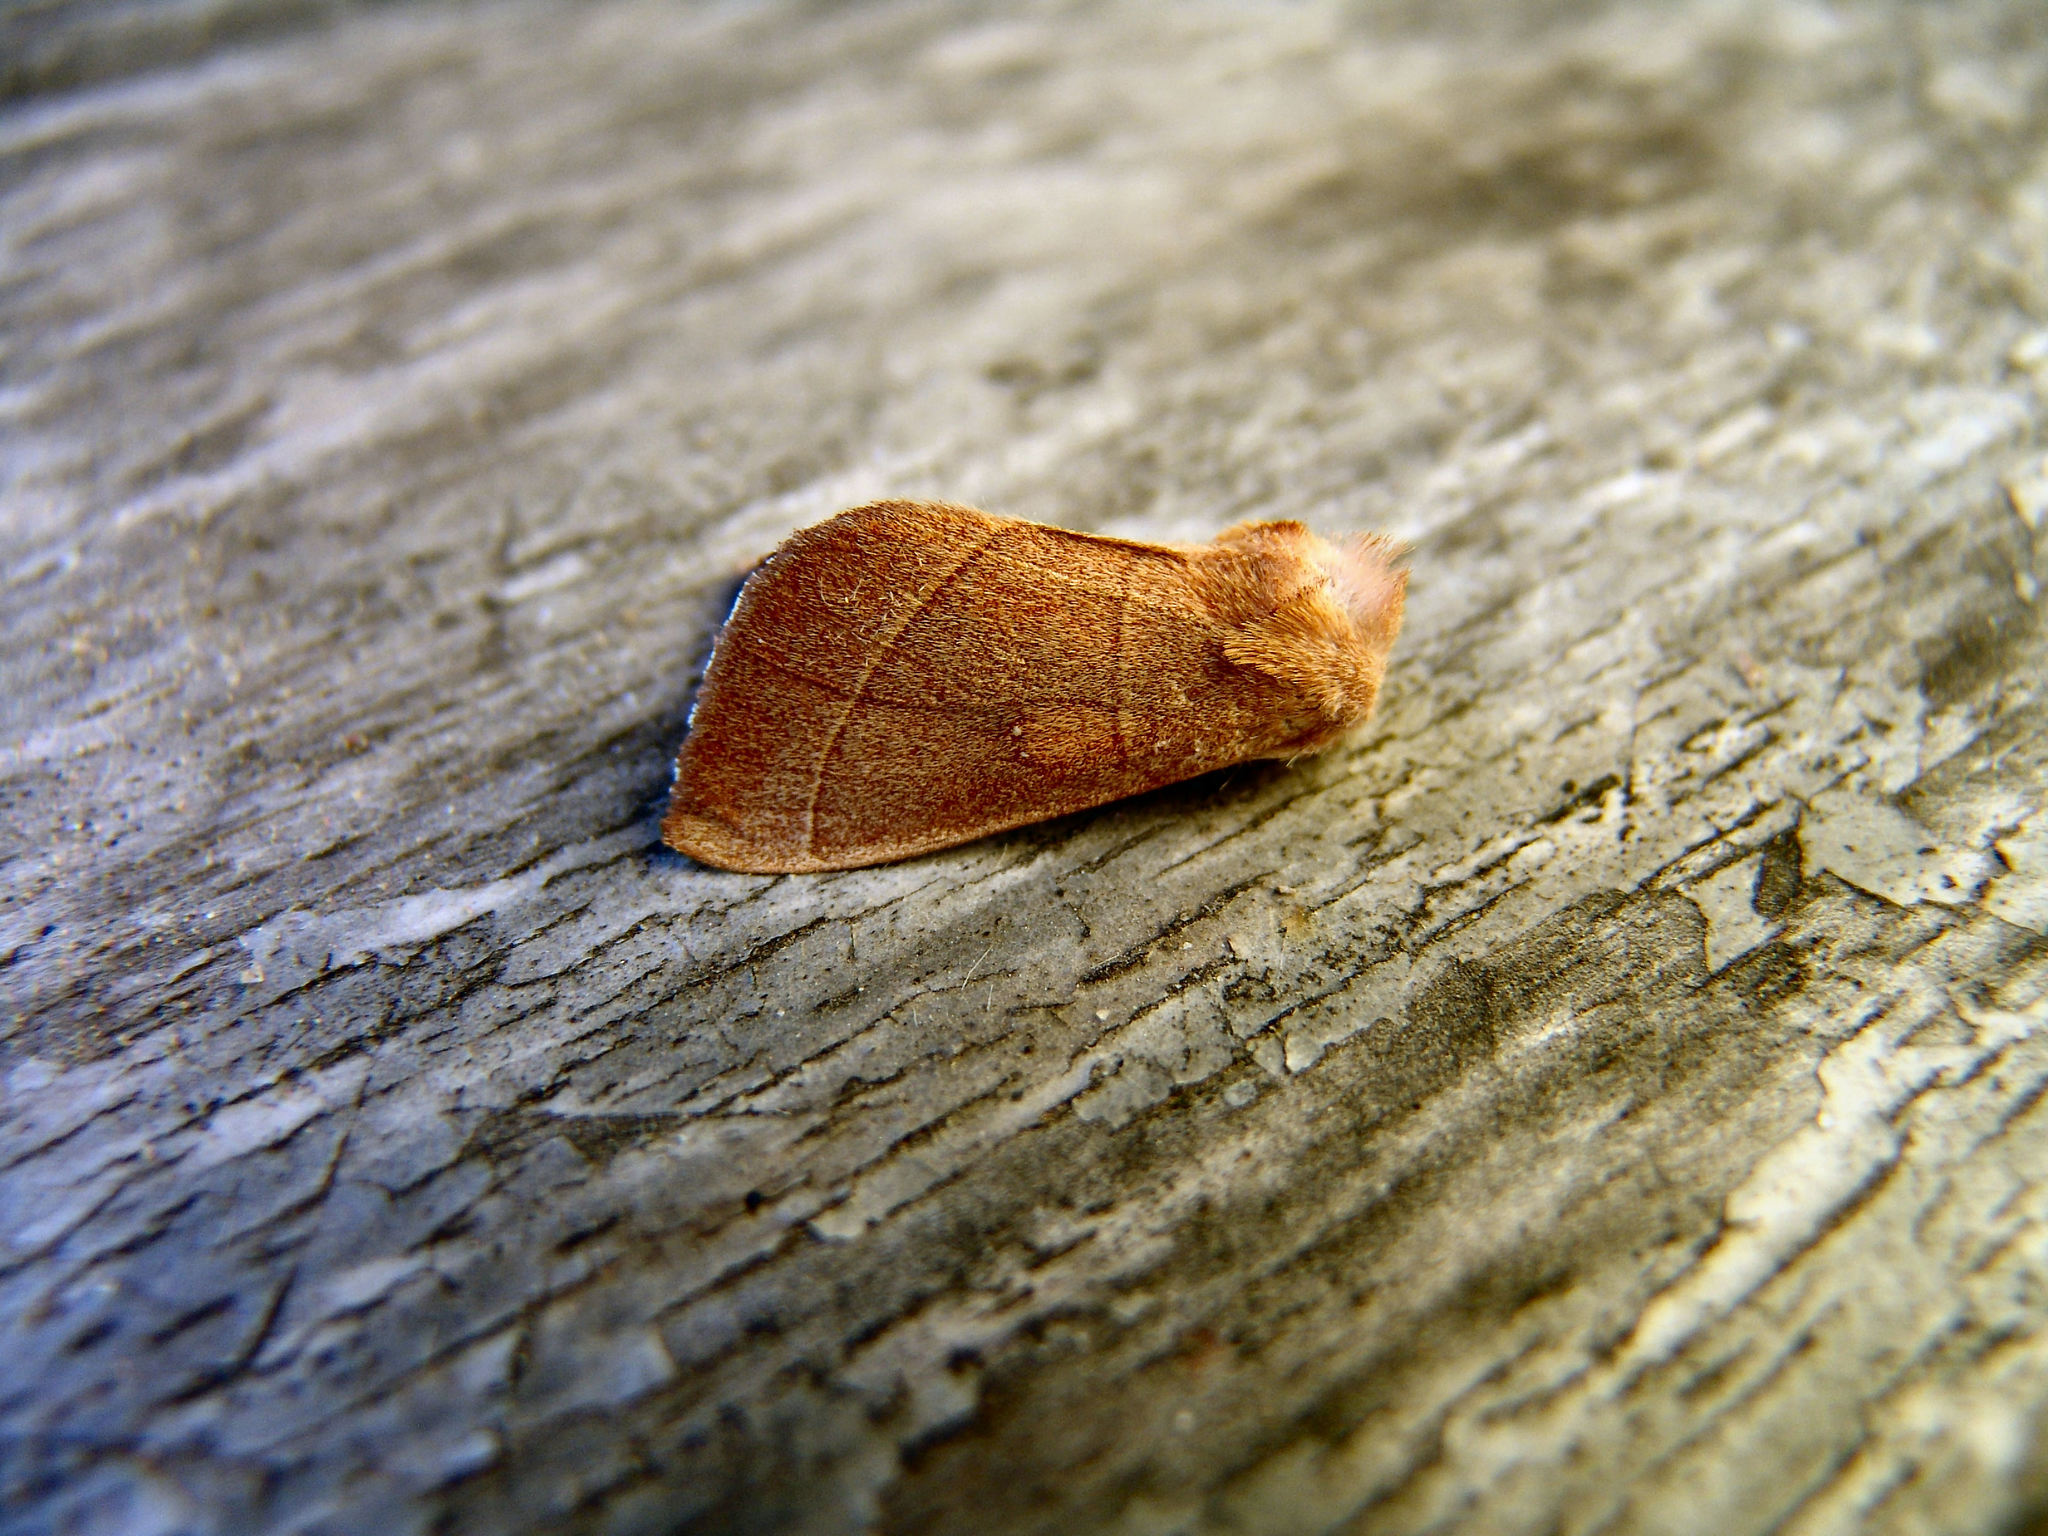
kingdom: Animalia
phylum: Arthropoda
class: Insecta
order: Lepidoptera
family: Notodontidae
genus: Nadata
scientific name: Nadata gibbosa
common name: White-dotted prominent
